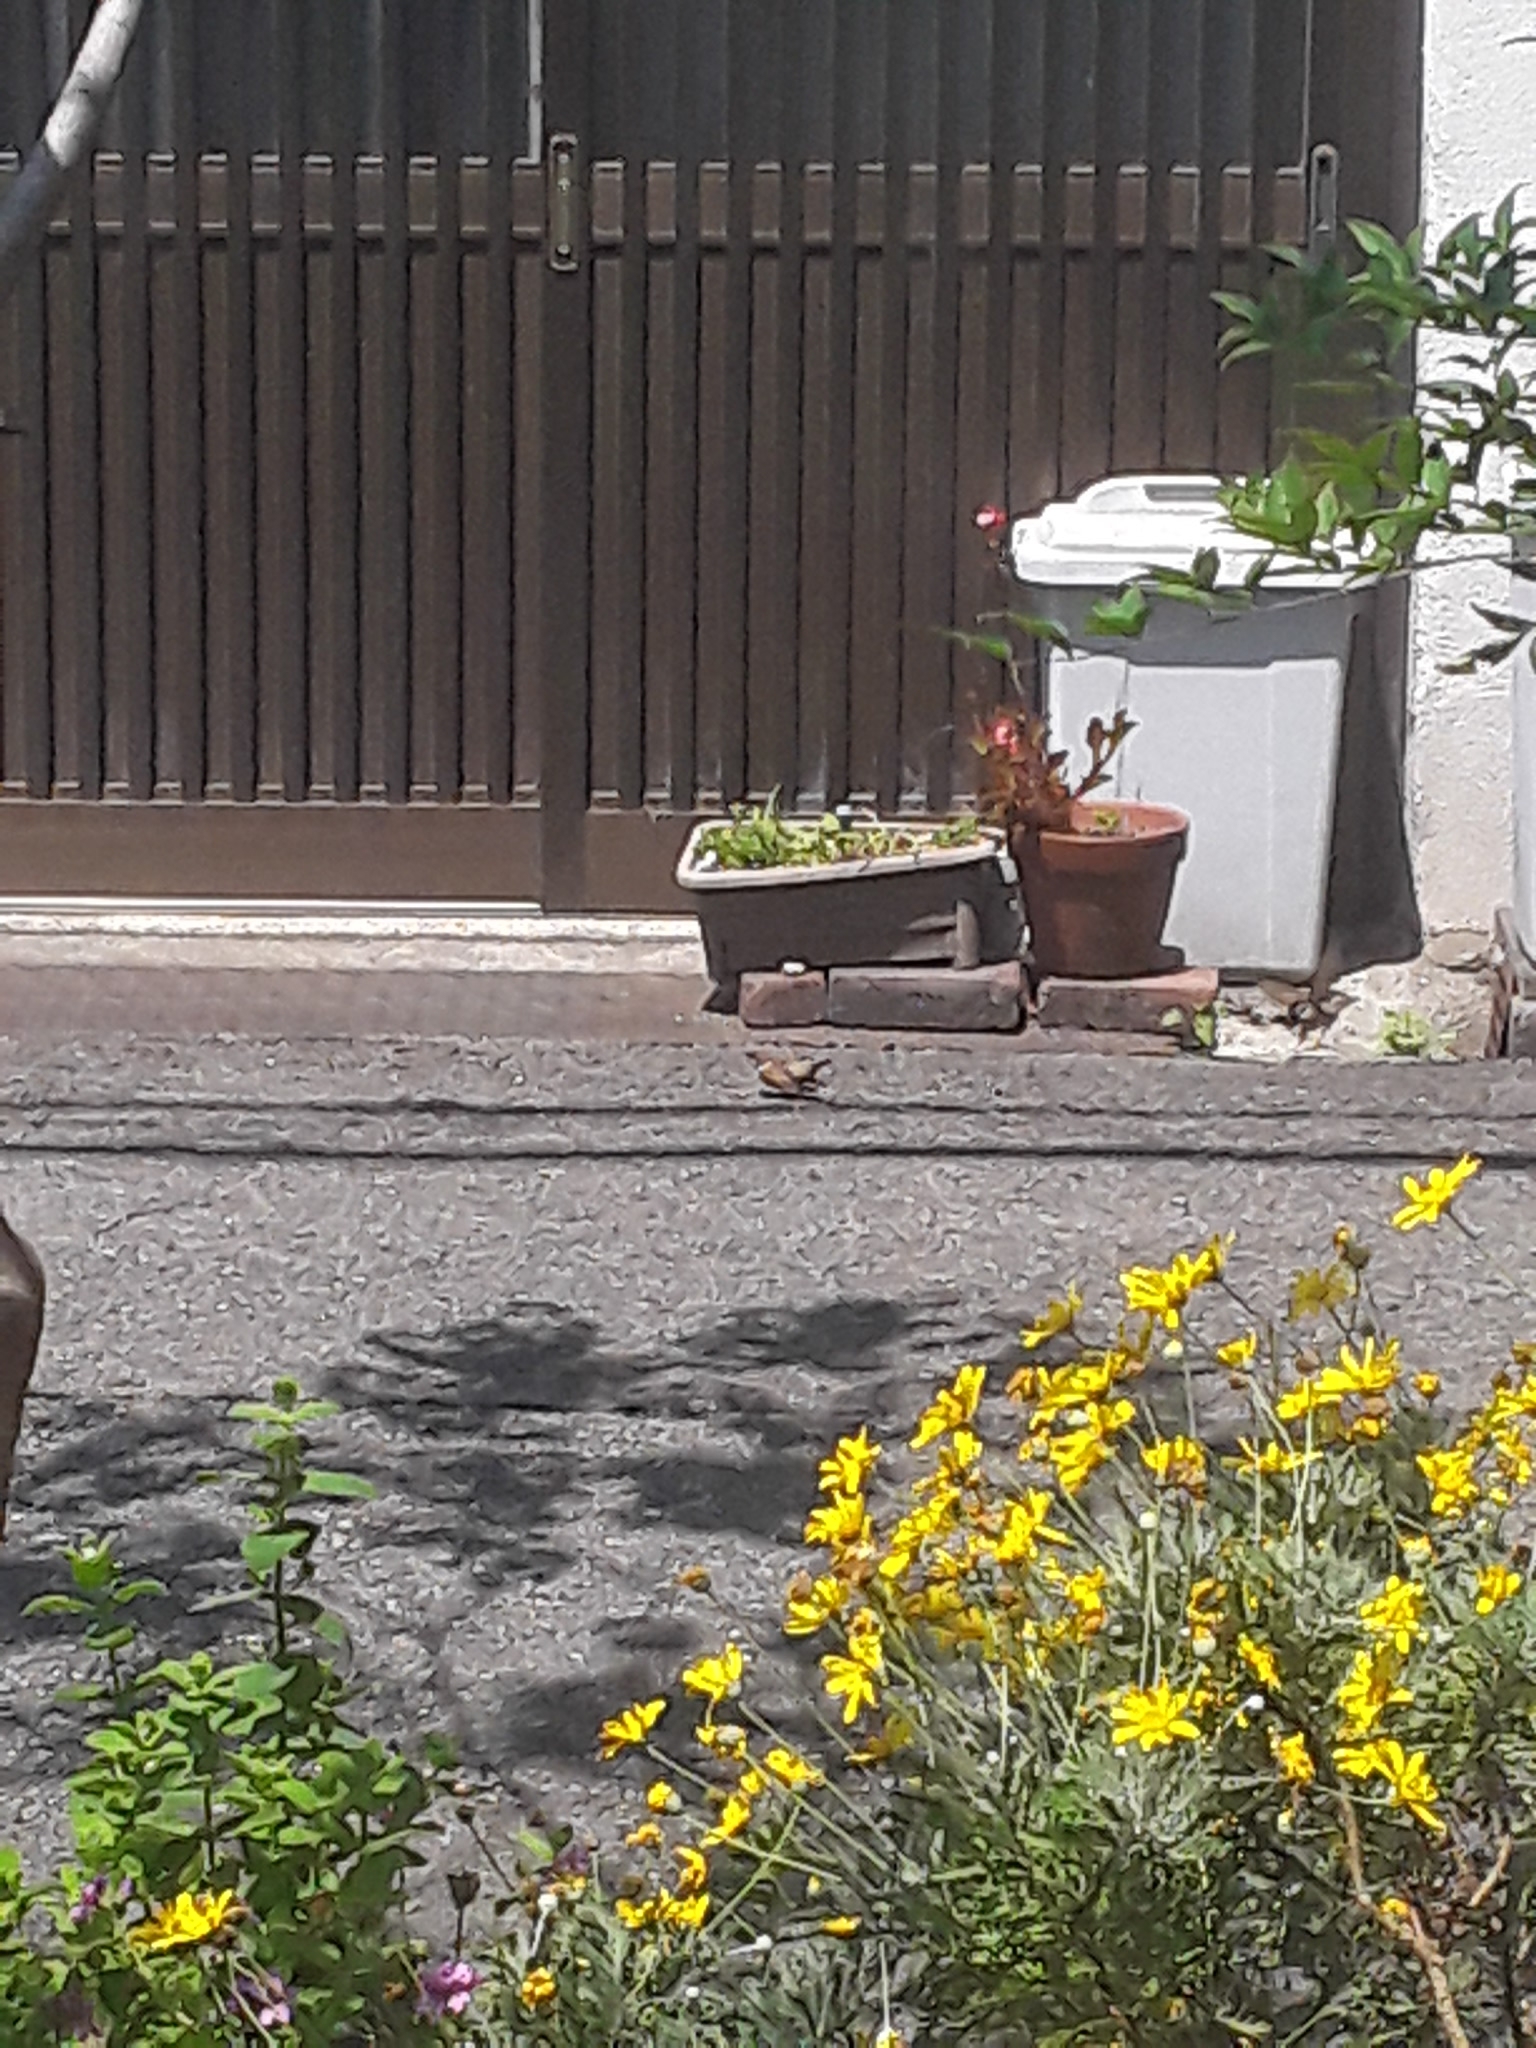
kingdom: Animalia
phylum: Chordata
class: Aves
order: Passeriformes
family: Passeridae
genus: Passer
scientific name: Passer montanus
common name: Eurasian tree sparrow
